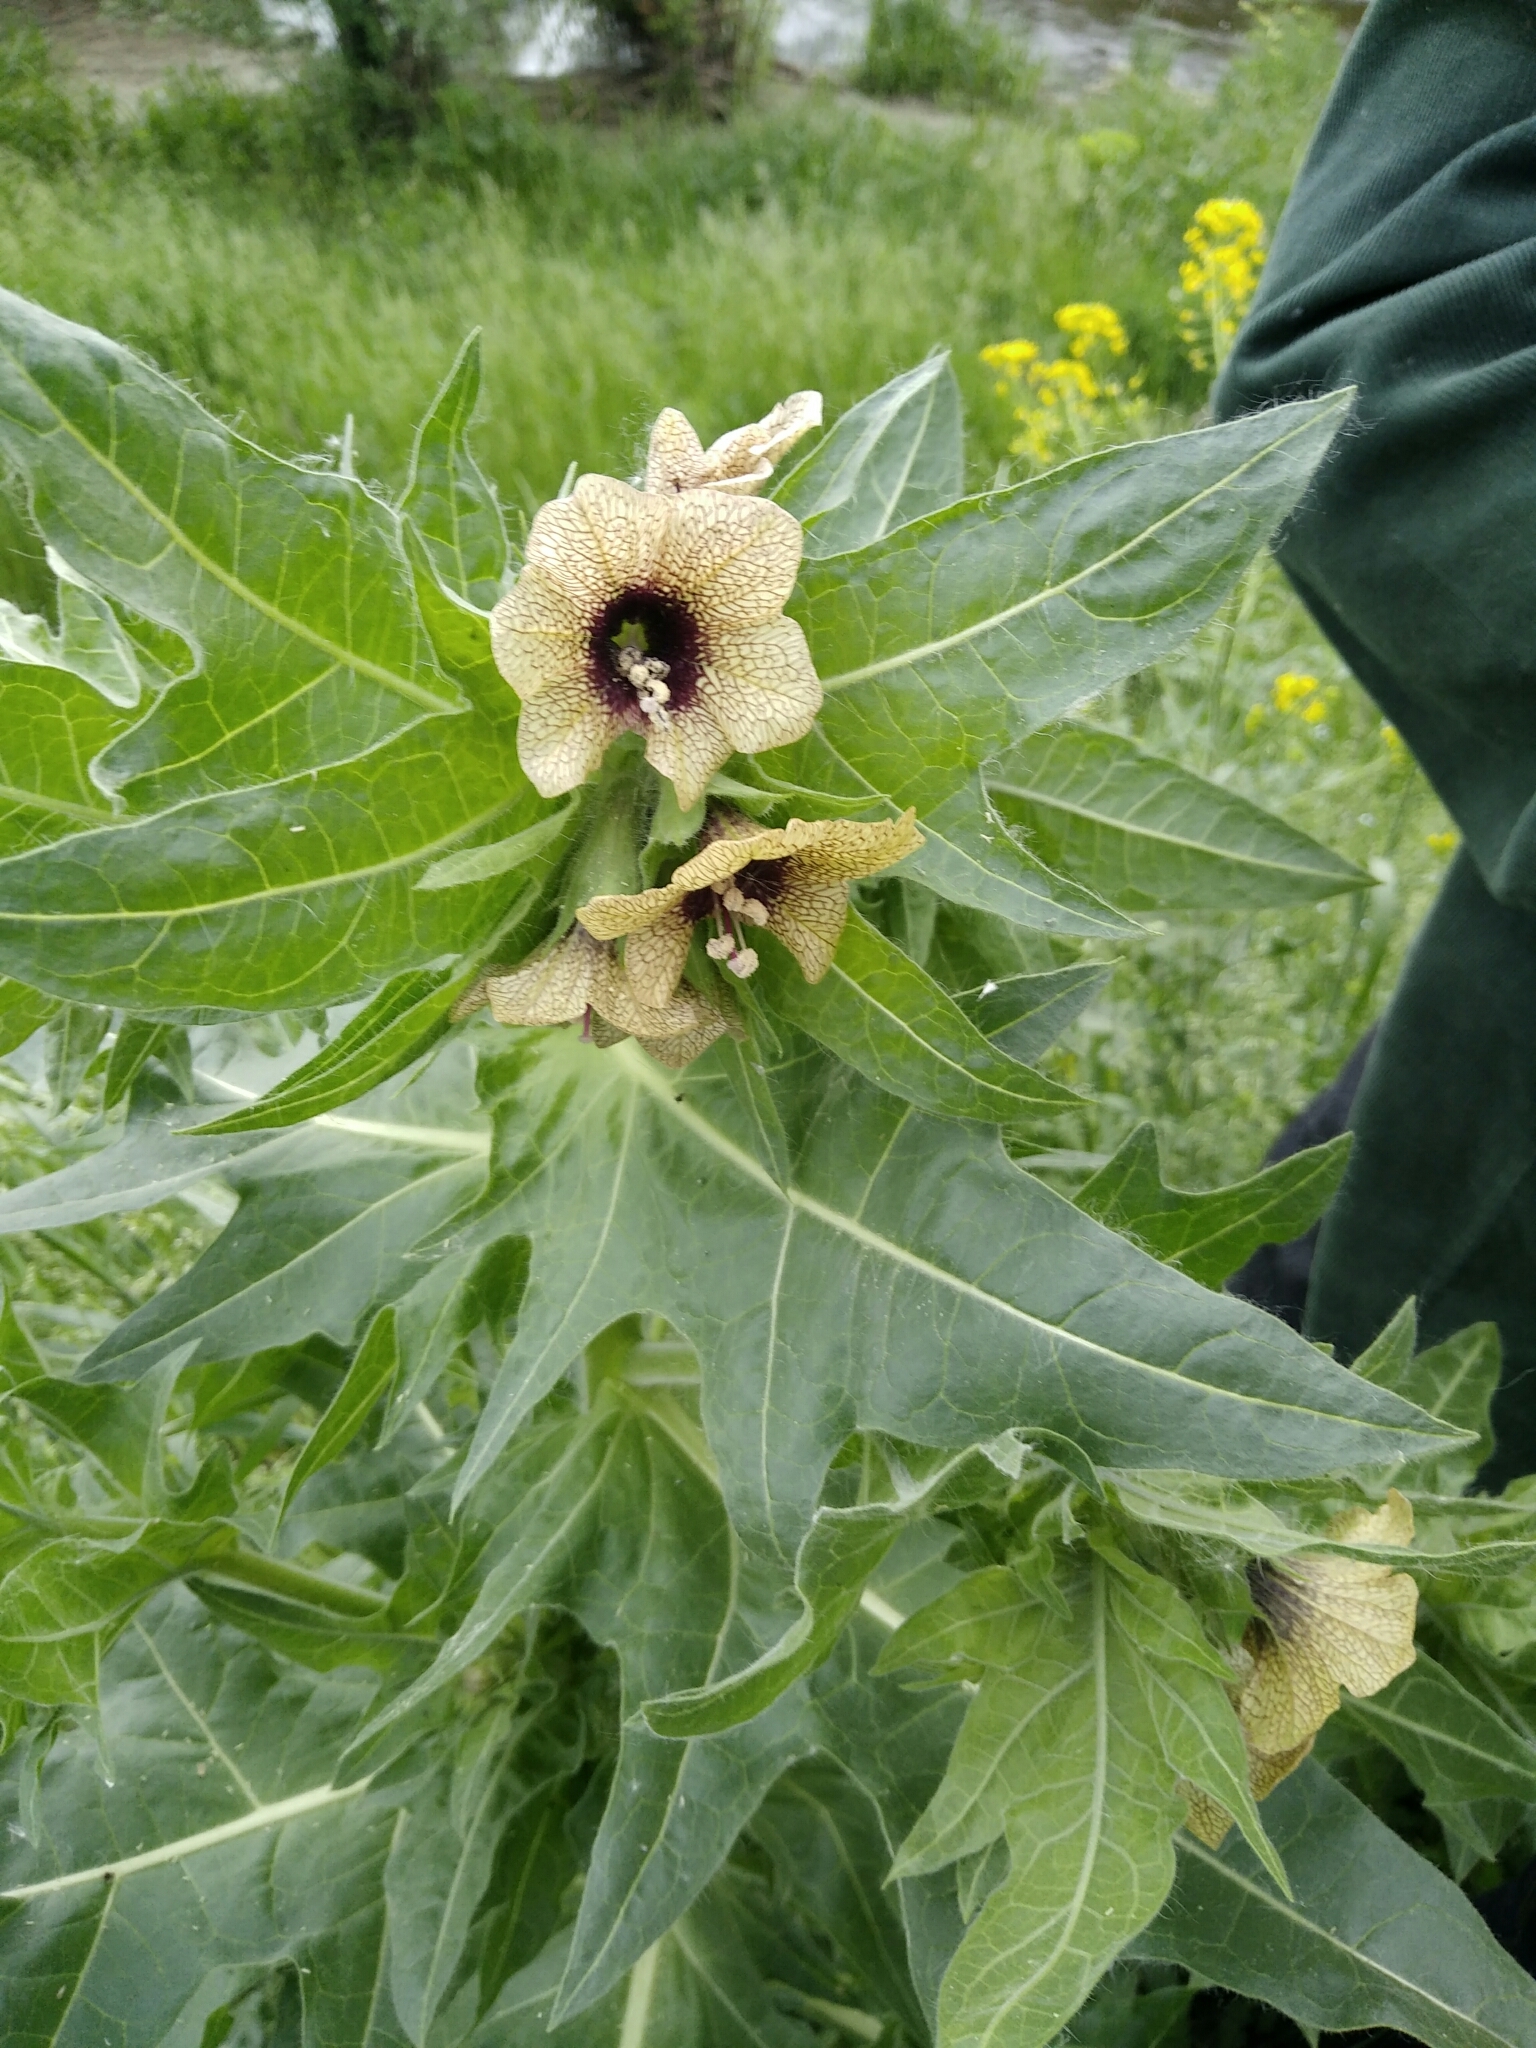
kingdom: Plantae
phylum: Tracheophyta
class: Magnoliopsida
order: Solanales
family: Solanaceae
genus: Hyoscyamus
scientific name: Hyoscyamus niger
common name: Henbane
